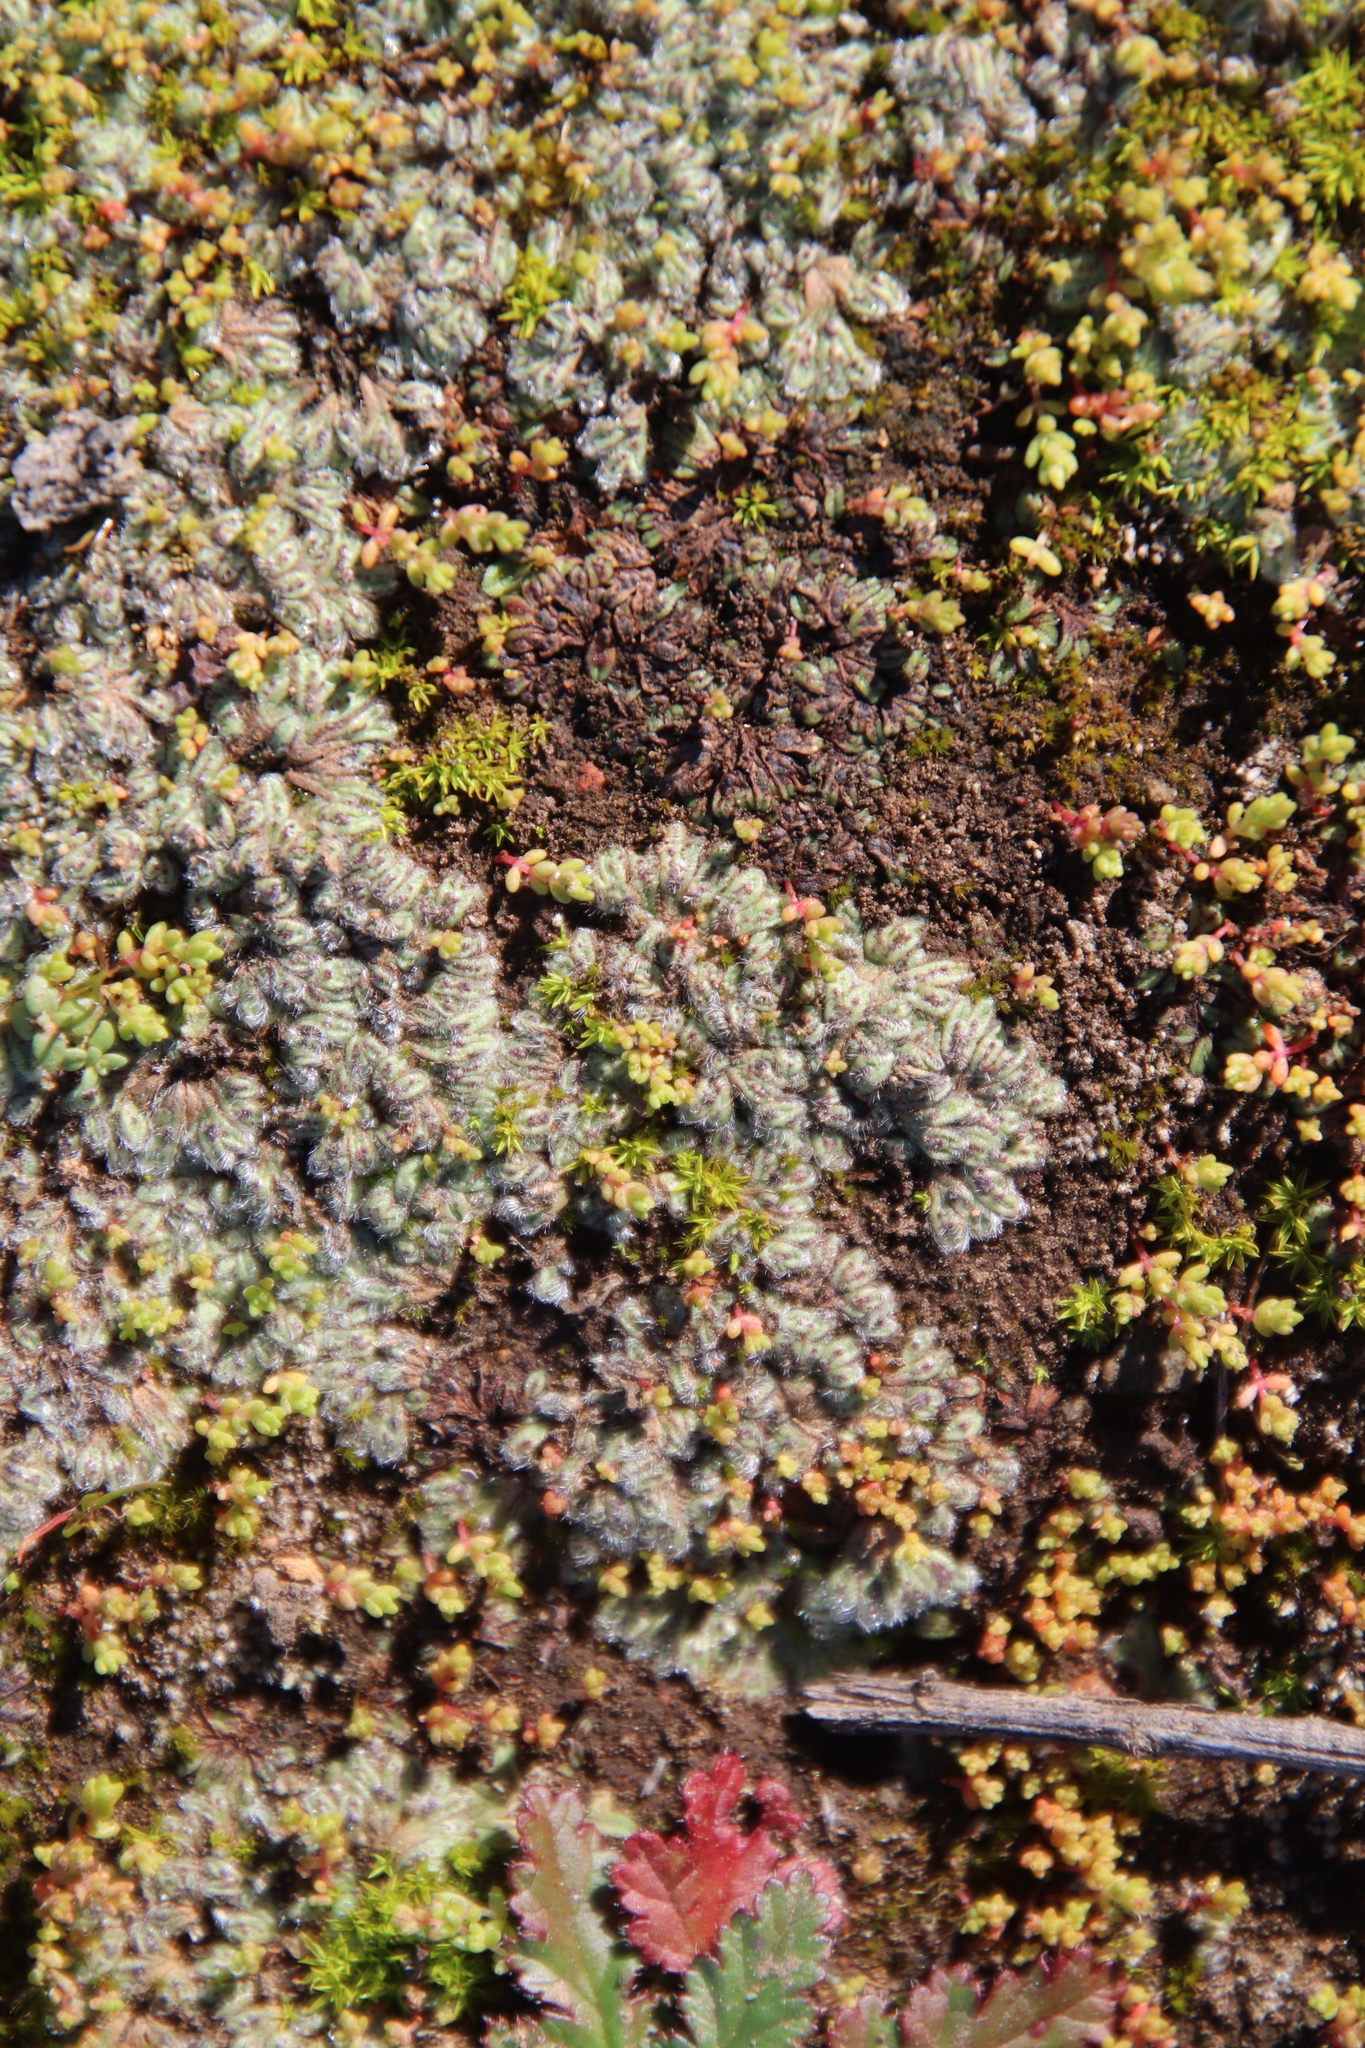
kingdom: Plantae
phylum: Marchantiophyta
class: Marchantiopsida
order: Marchantiales
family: Ricciaceae
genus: Riccia
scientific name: Riccia trichocarpa
